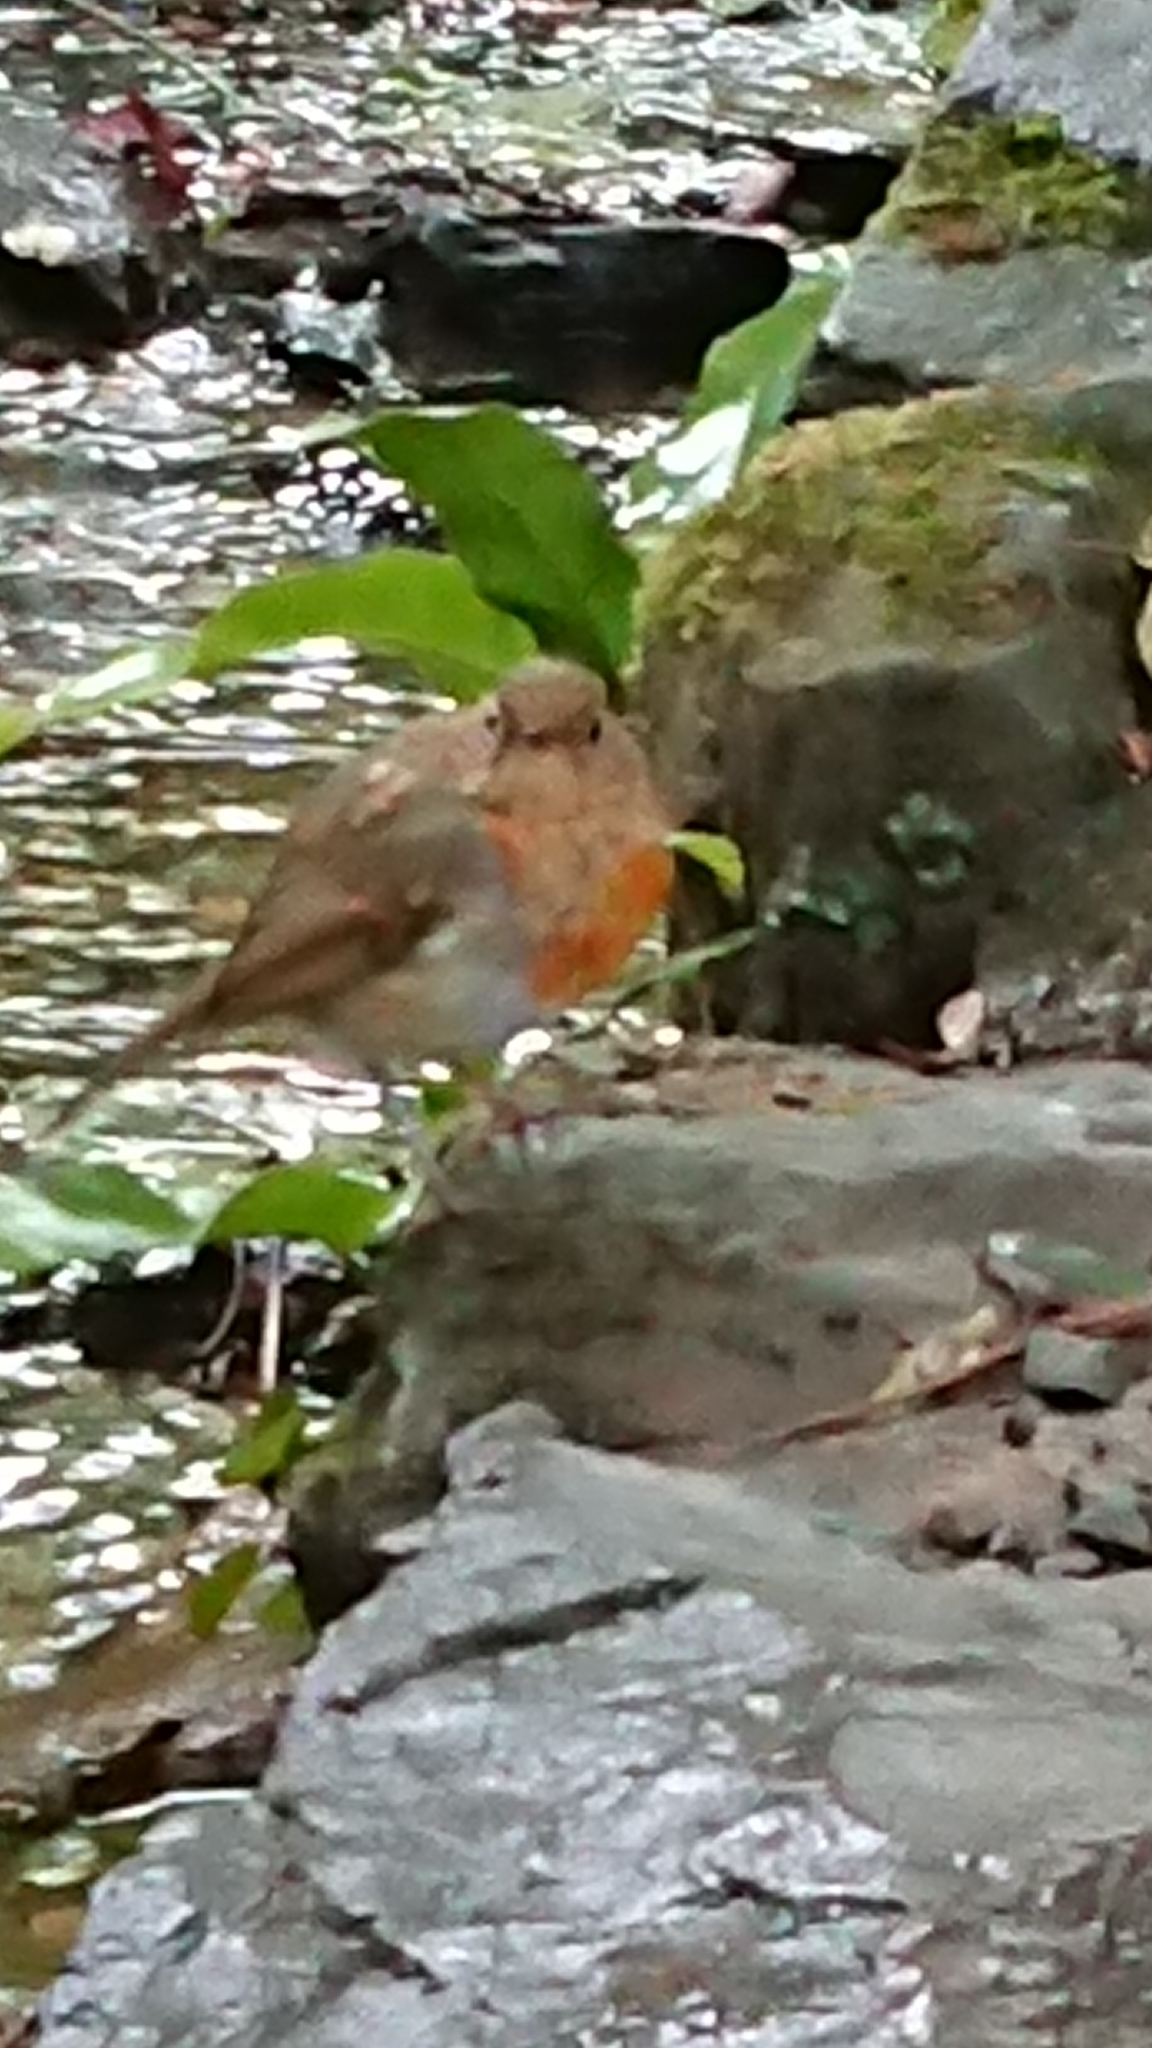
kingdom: Animalia
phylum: Chordata
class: Aves
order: Passeriformes
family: Muscicapidae
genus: Erithacus
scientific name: Erithacus rubecula
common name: European robin
